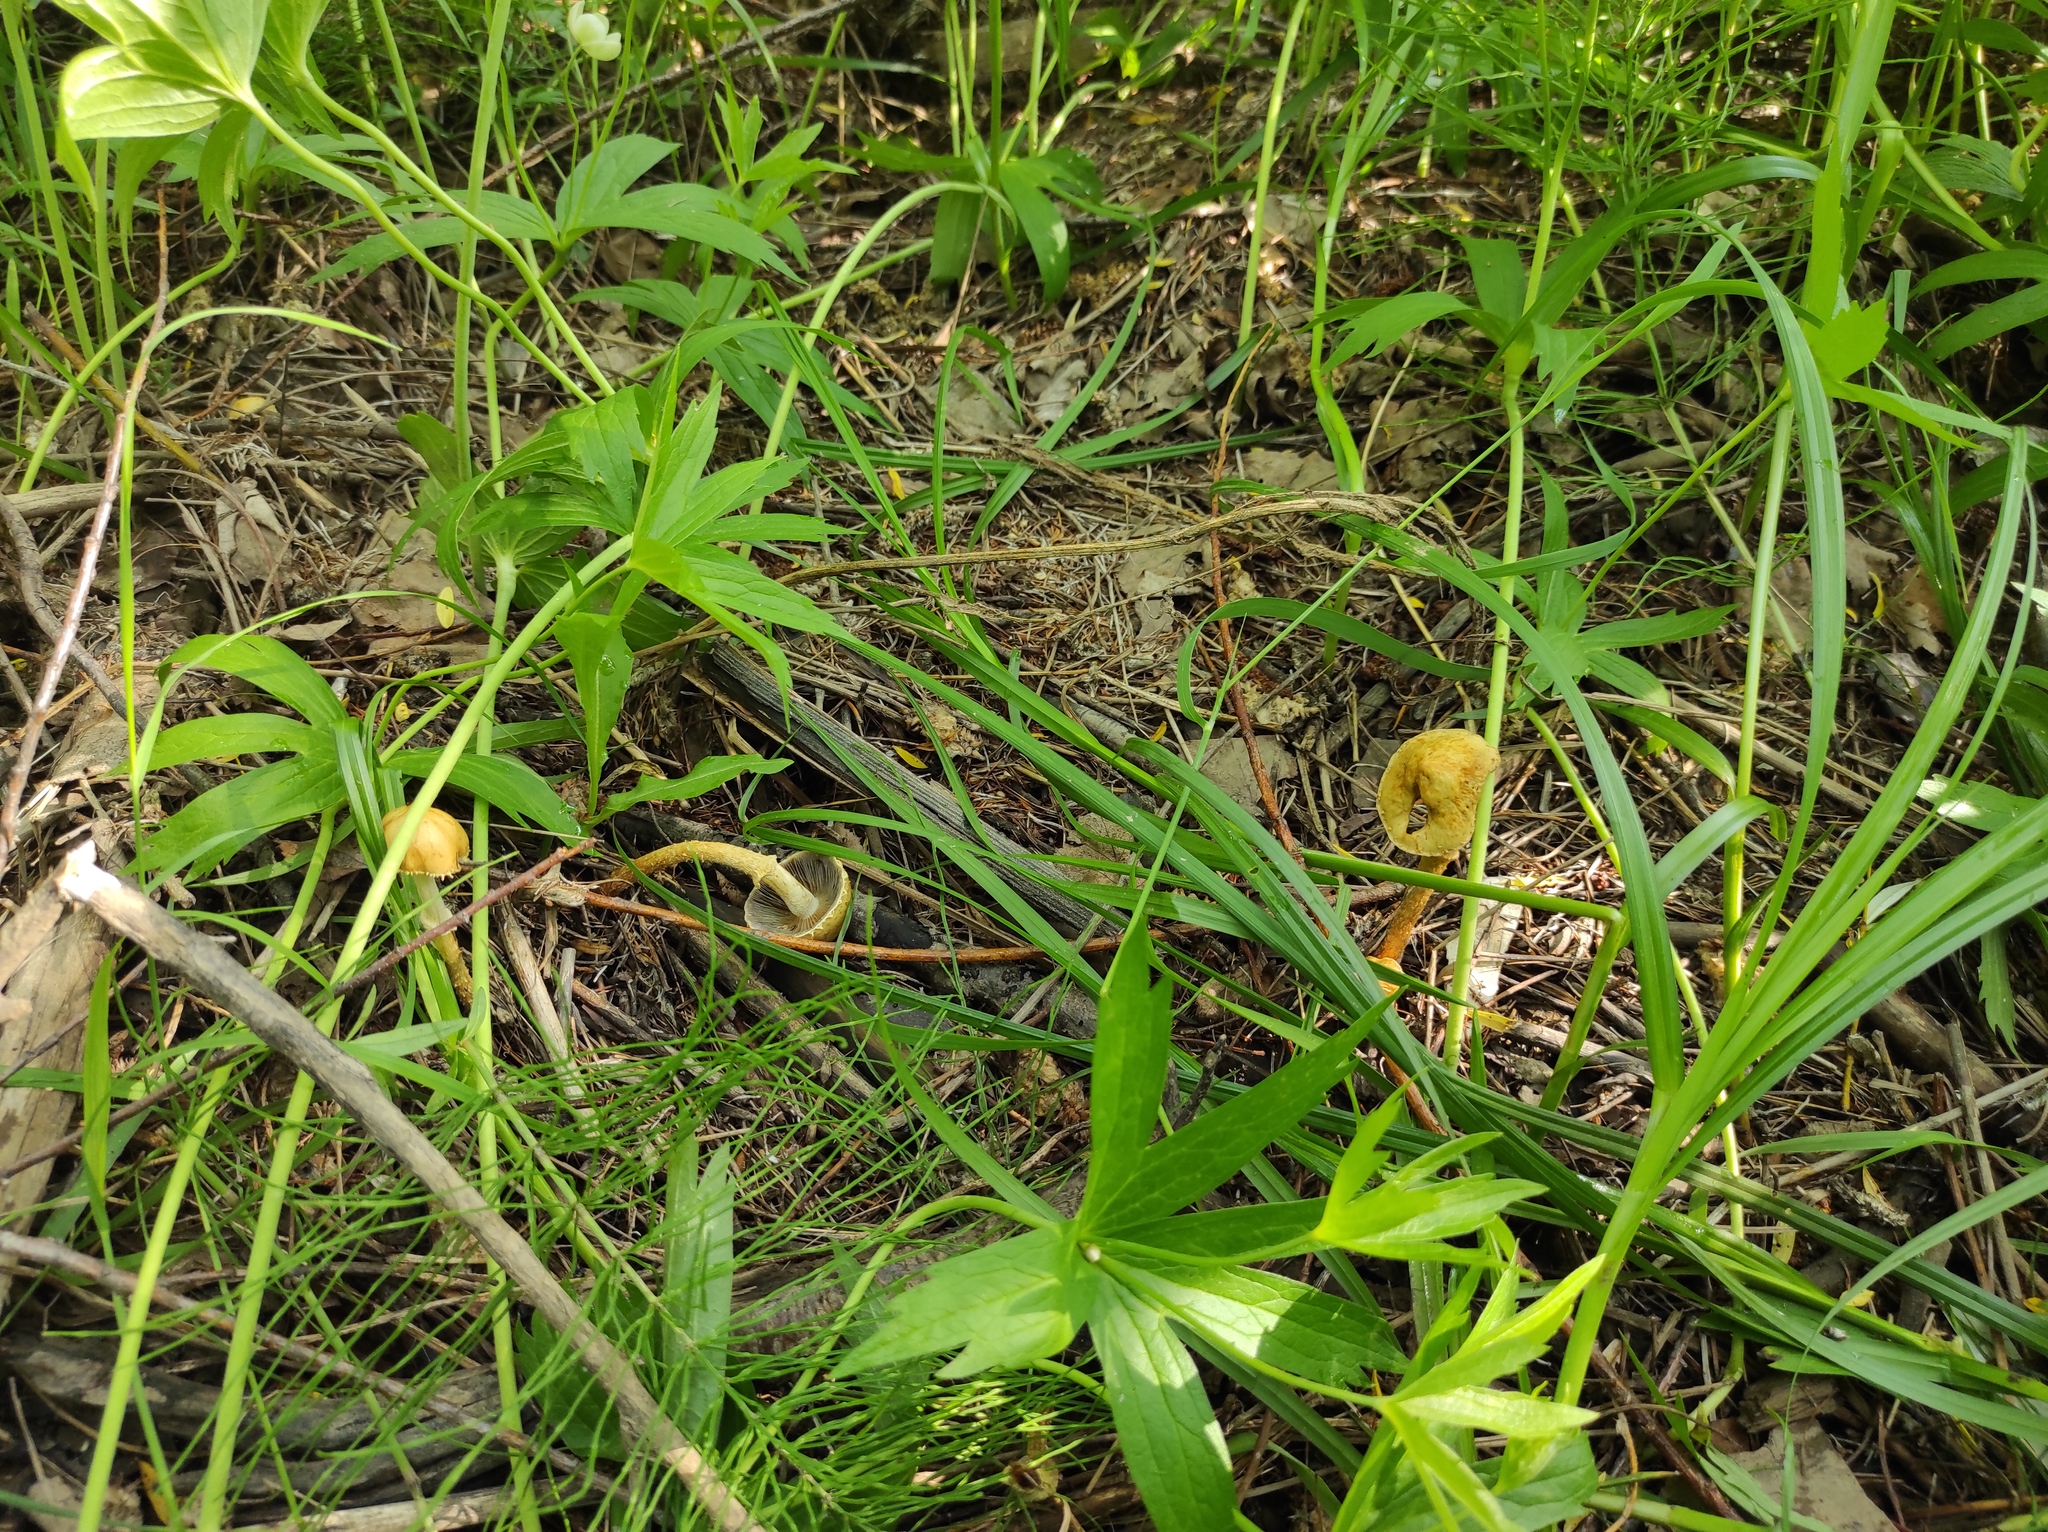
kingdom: Plantae
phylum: Tracheophyta
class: Magnoliopsida
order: Ranunculales
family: Ranunculaceae
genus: Anemonastrum
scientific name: Anemonastrum dichotomum
